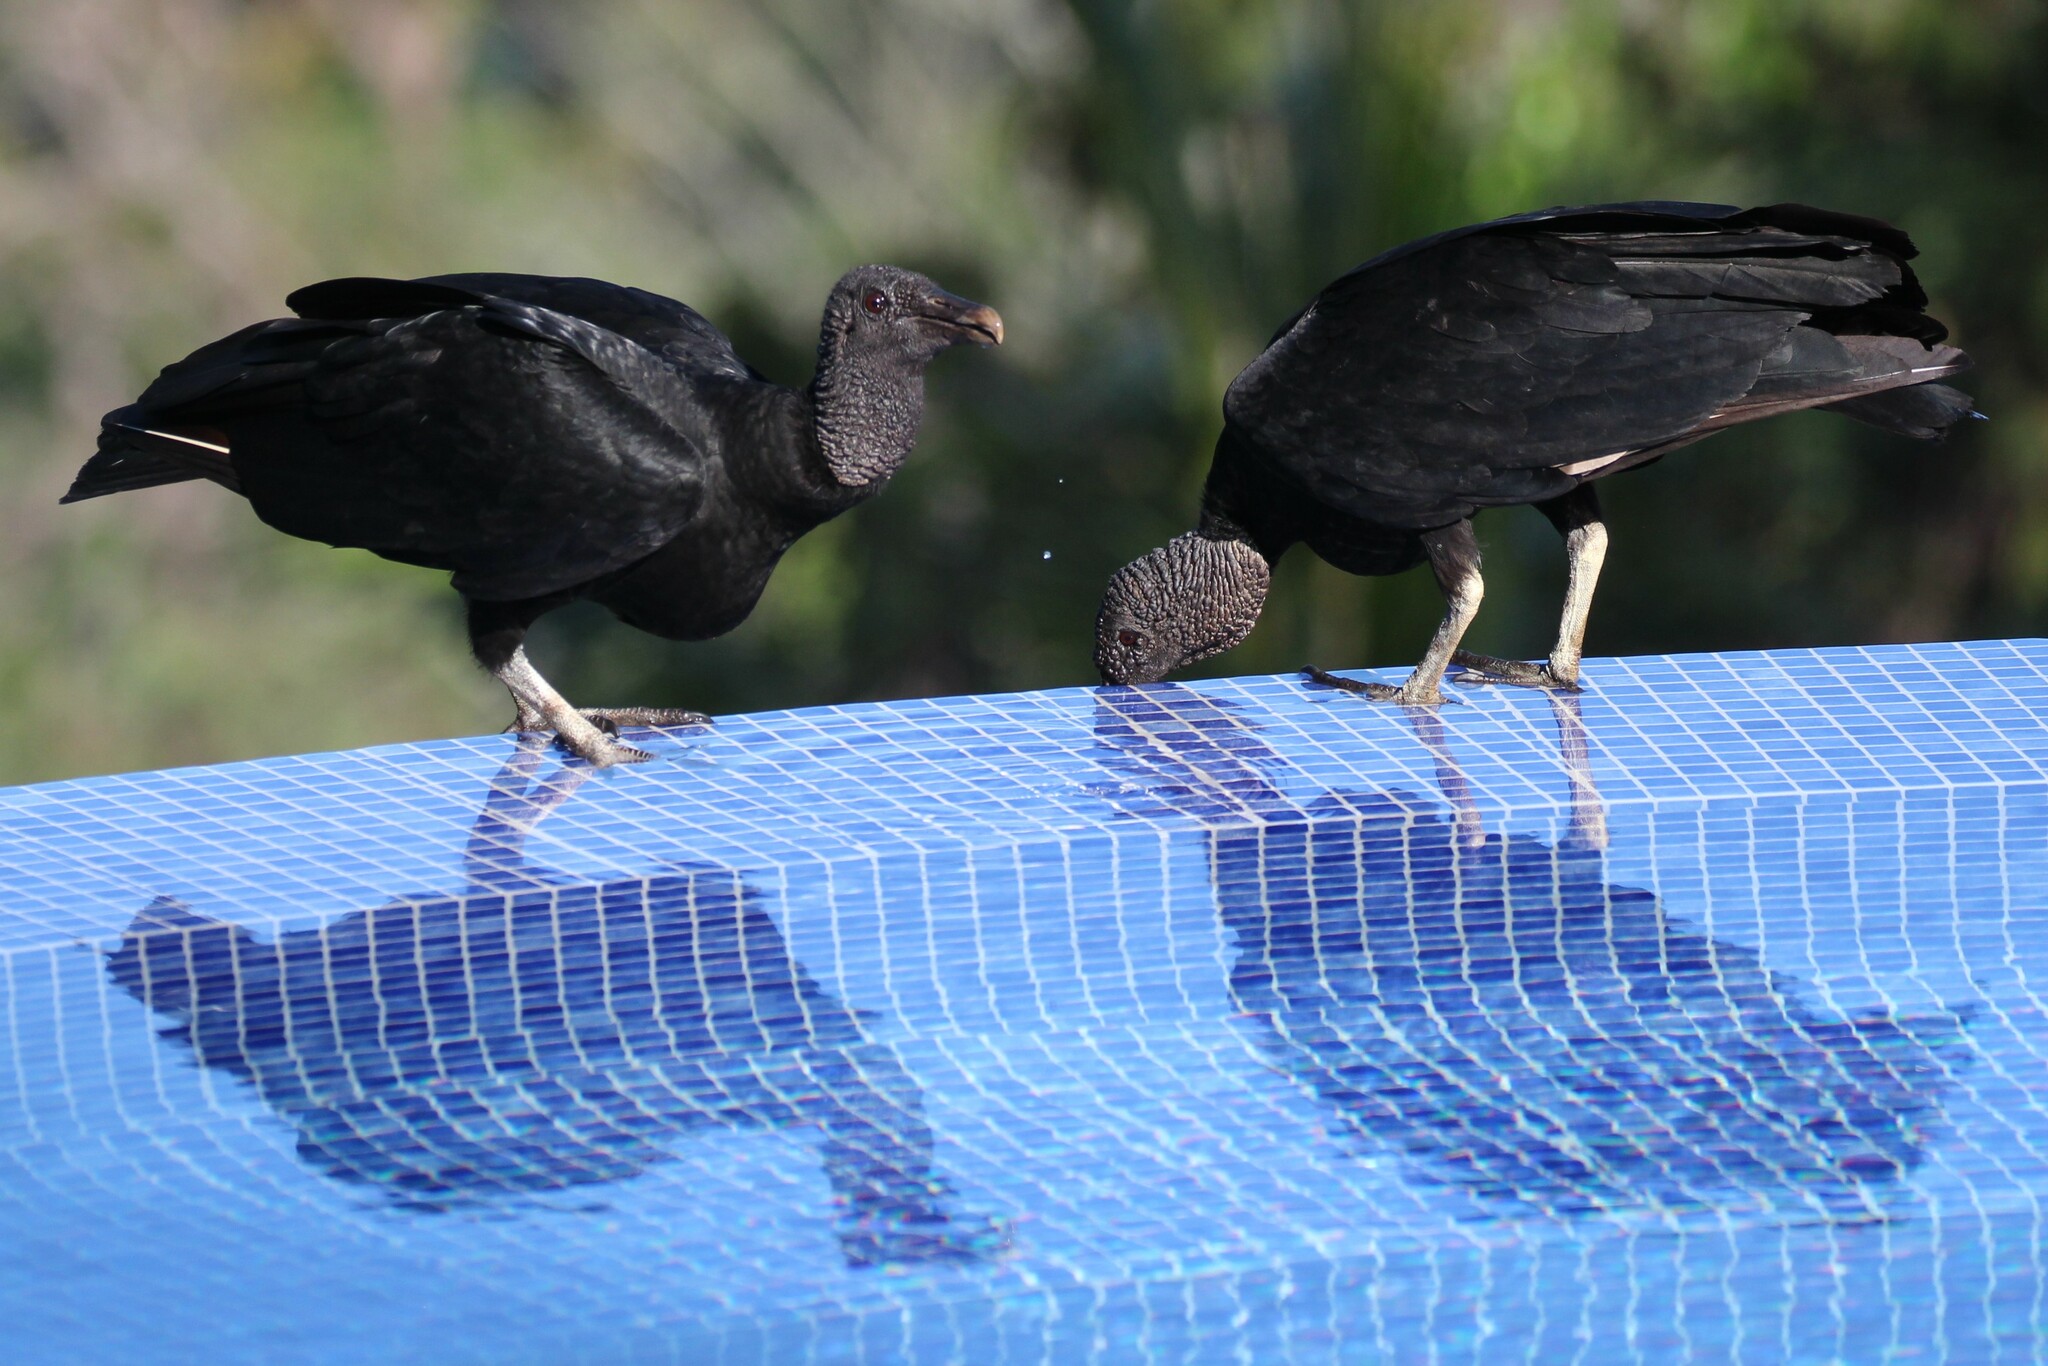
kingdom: Animalia
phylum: Chordata
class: Aves
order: Accipitriformes
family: Cathartidae
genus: Coragyps
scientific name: Coragyps atratus
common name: Black vulture
